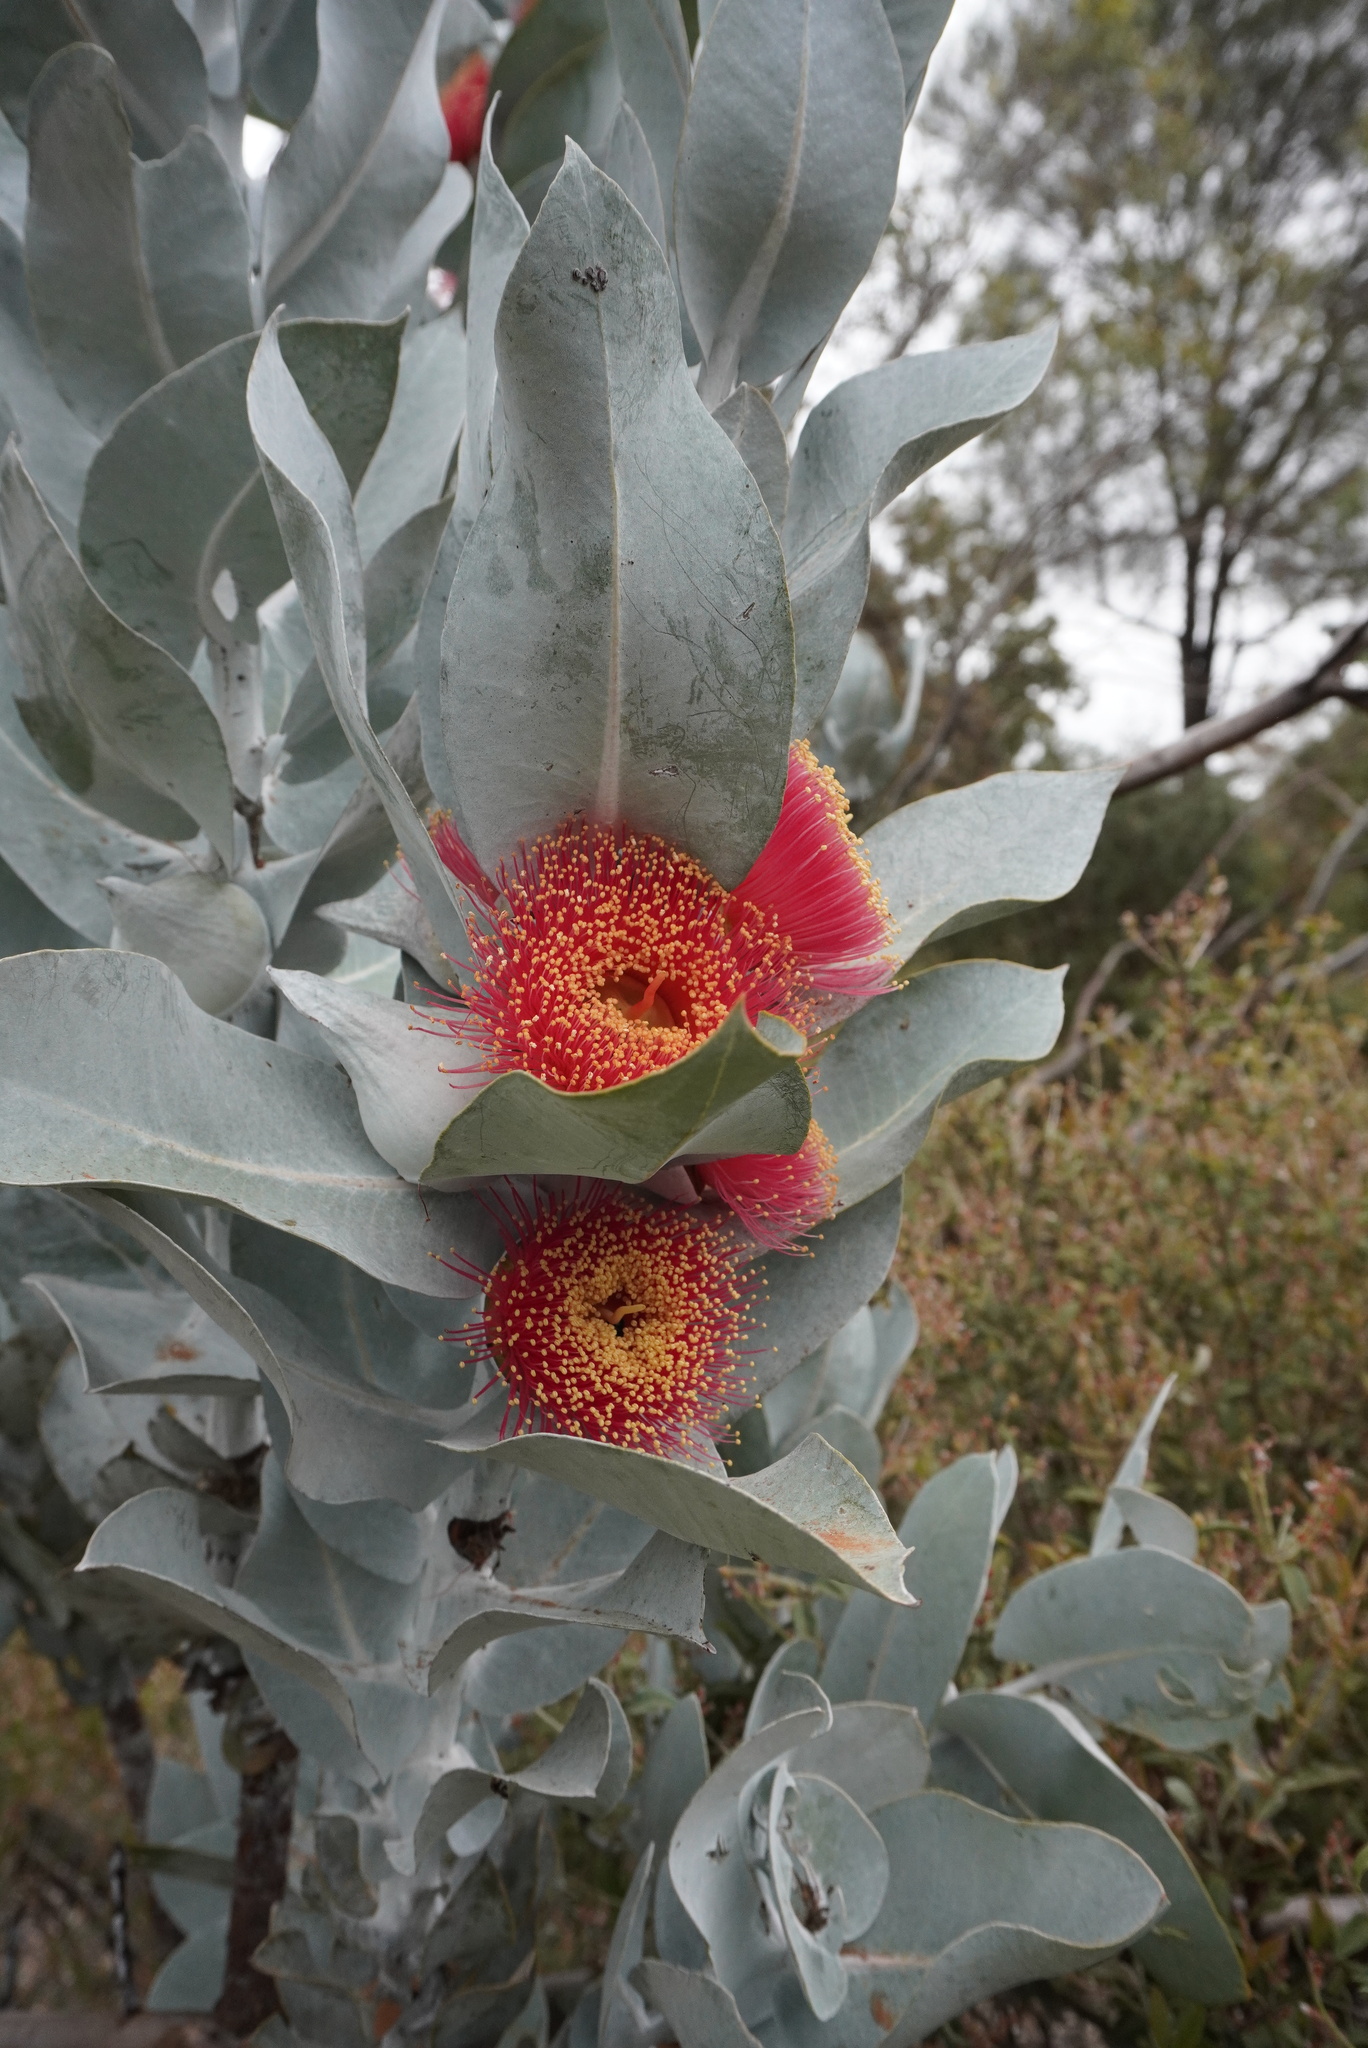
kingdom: Plantae
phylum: Tracheophyta
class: Magnoliopsida
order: Myrtales
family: Myrtaceae
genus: Eucalyptus
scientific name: Eucalyptus macrocarpa
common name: Mottlecah
